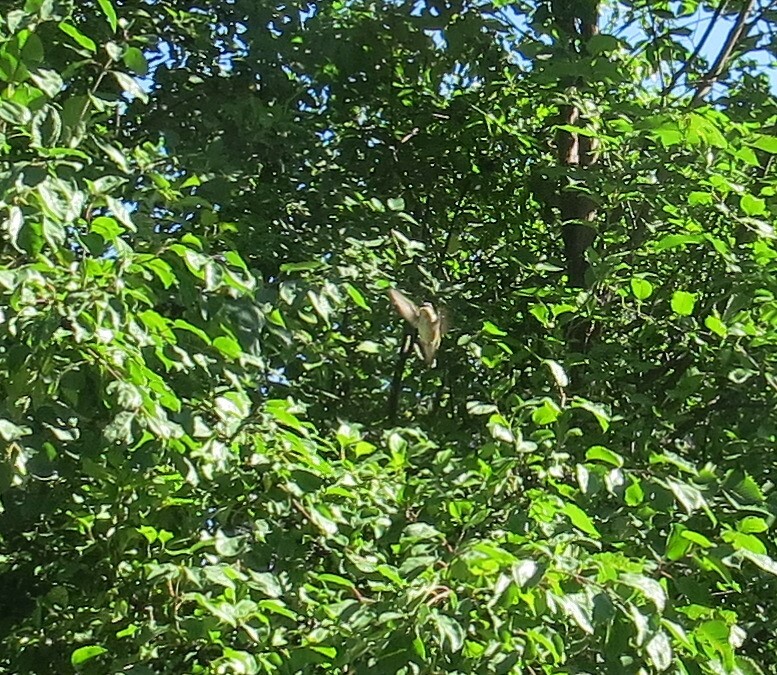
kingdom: Animalia
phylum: Chordata
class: Aves
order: Apodiformes
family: Trochilidae
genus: Archilochus
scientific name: Archilochus colubris
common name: Ruby-throated hummingbird
